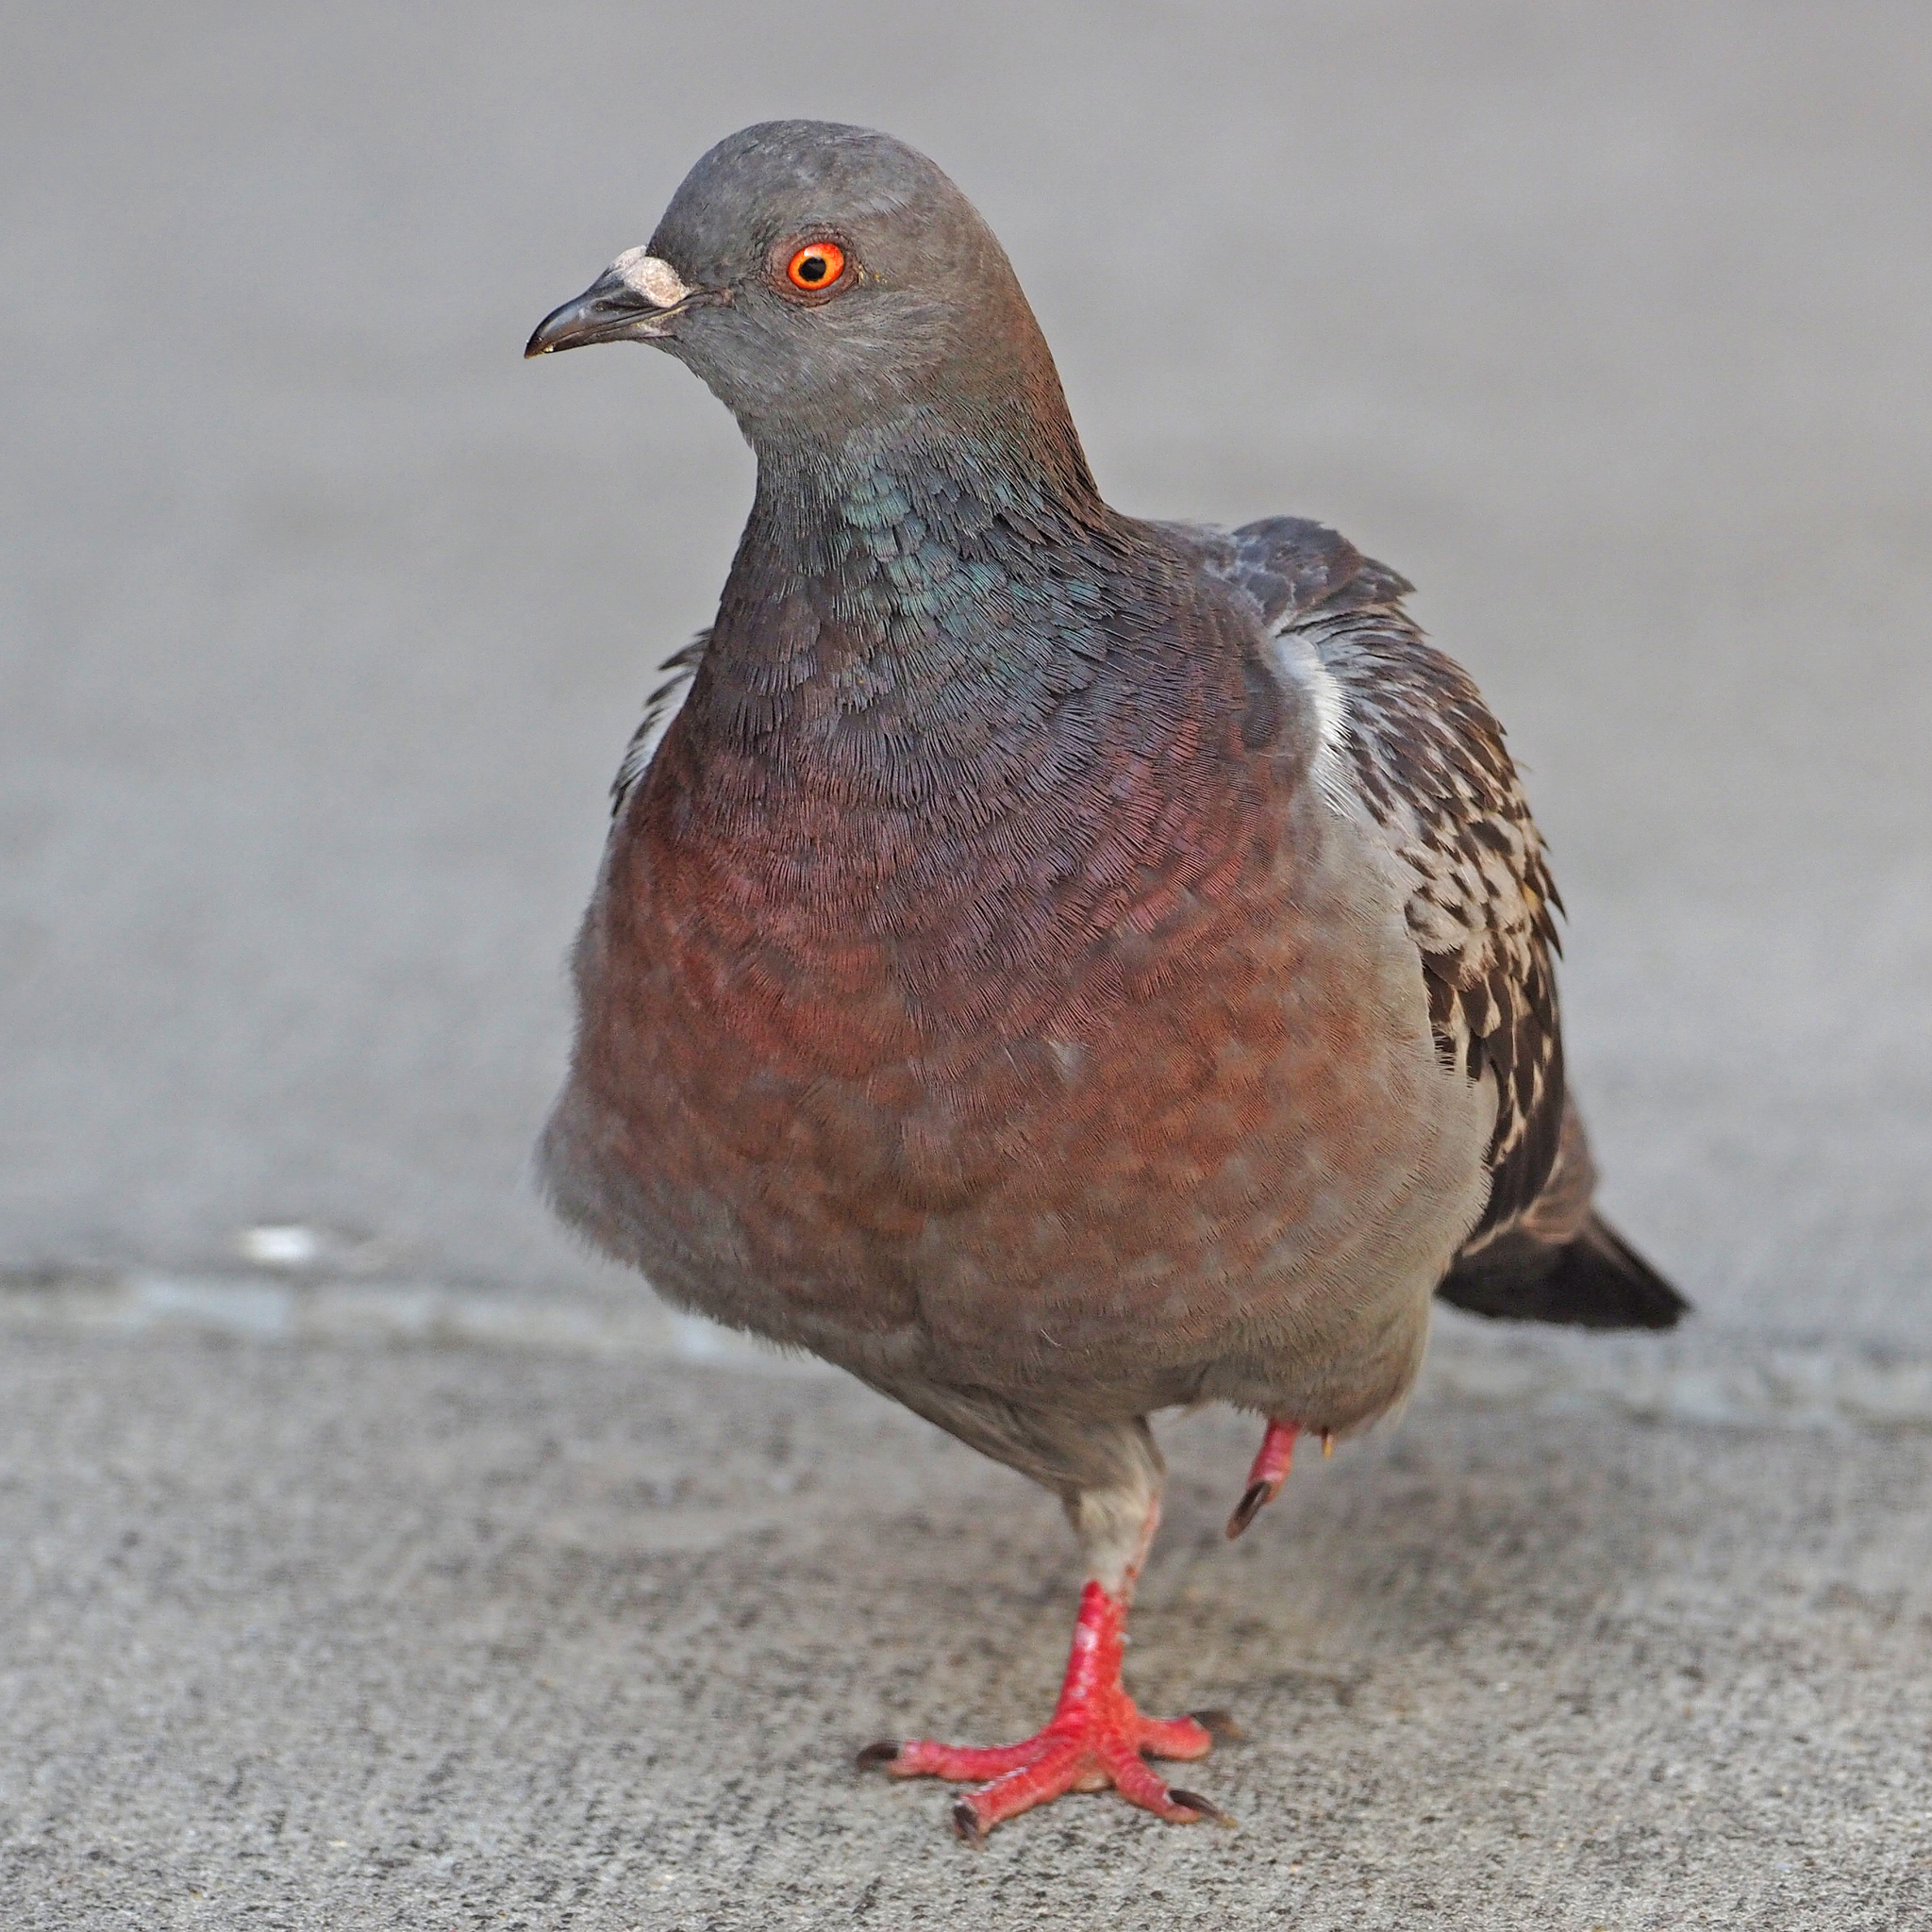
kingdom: Animalia
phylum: Chordata
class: Aves
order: Columbiformes
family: Columbidae
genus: Columba
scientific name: Columba livia
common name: Rock pigeon
